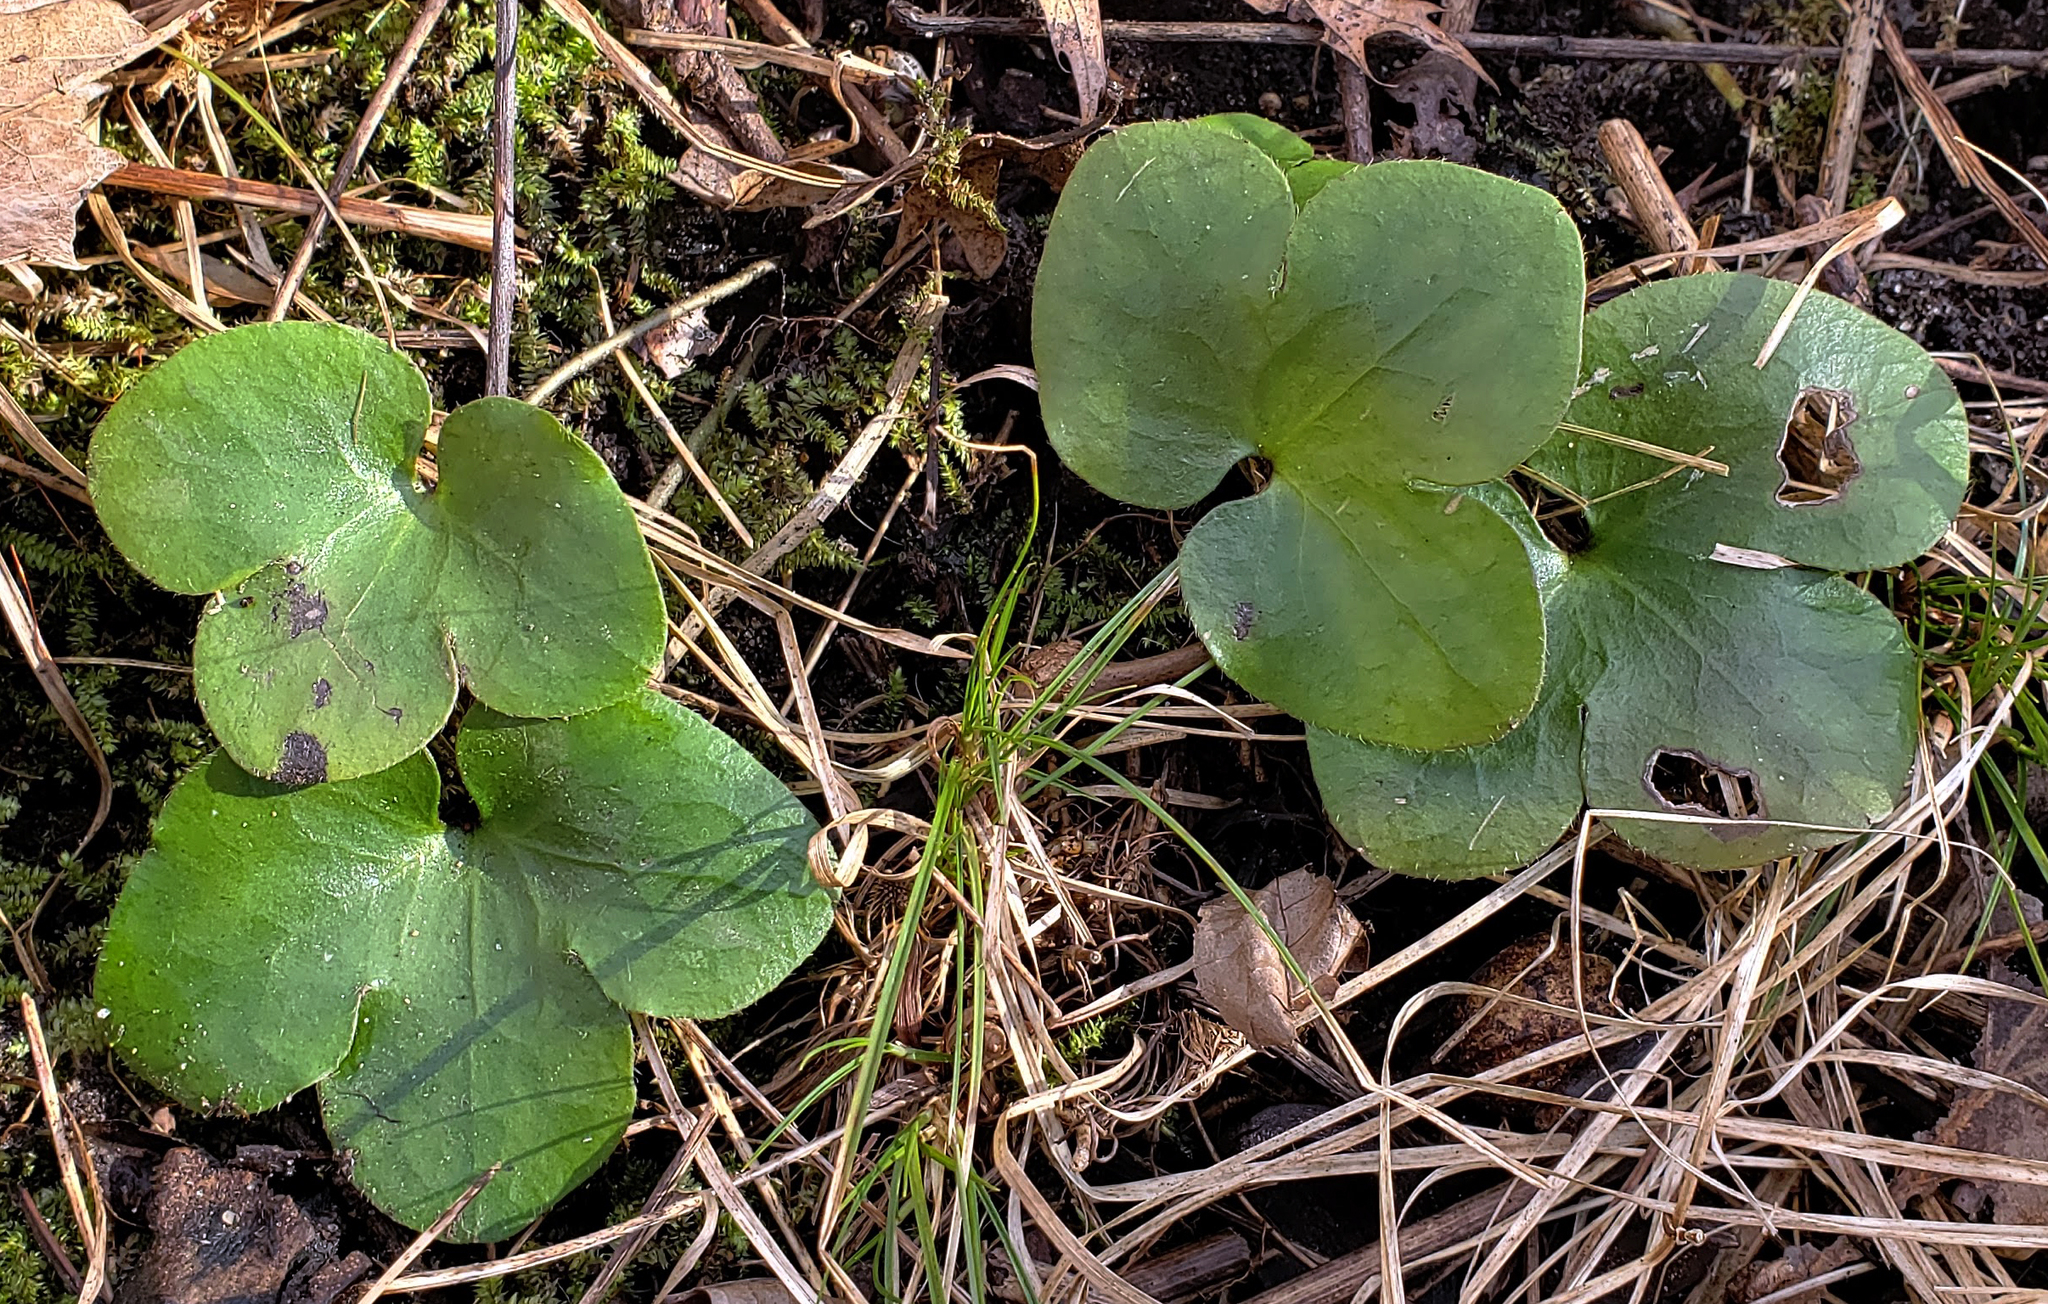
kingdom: Plantae
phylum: Tracheophyta
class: Magnoliopsida
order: Ranunculales
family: Ranunculaceae
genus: Hepatica
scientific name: Hepatica americana
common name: American hepatica
